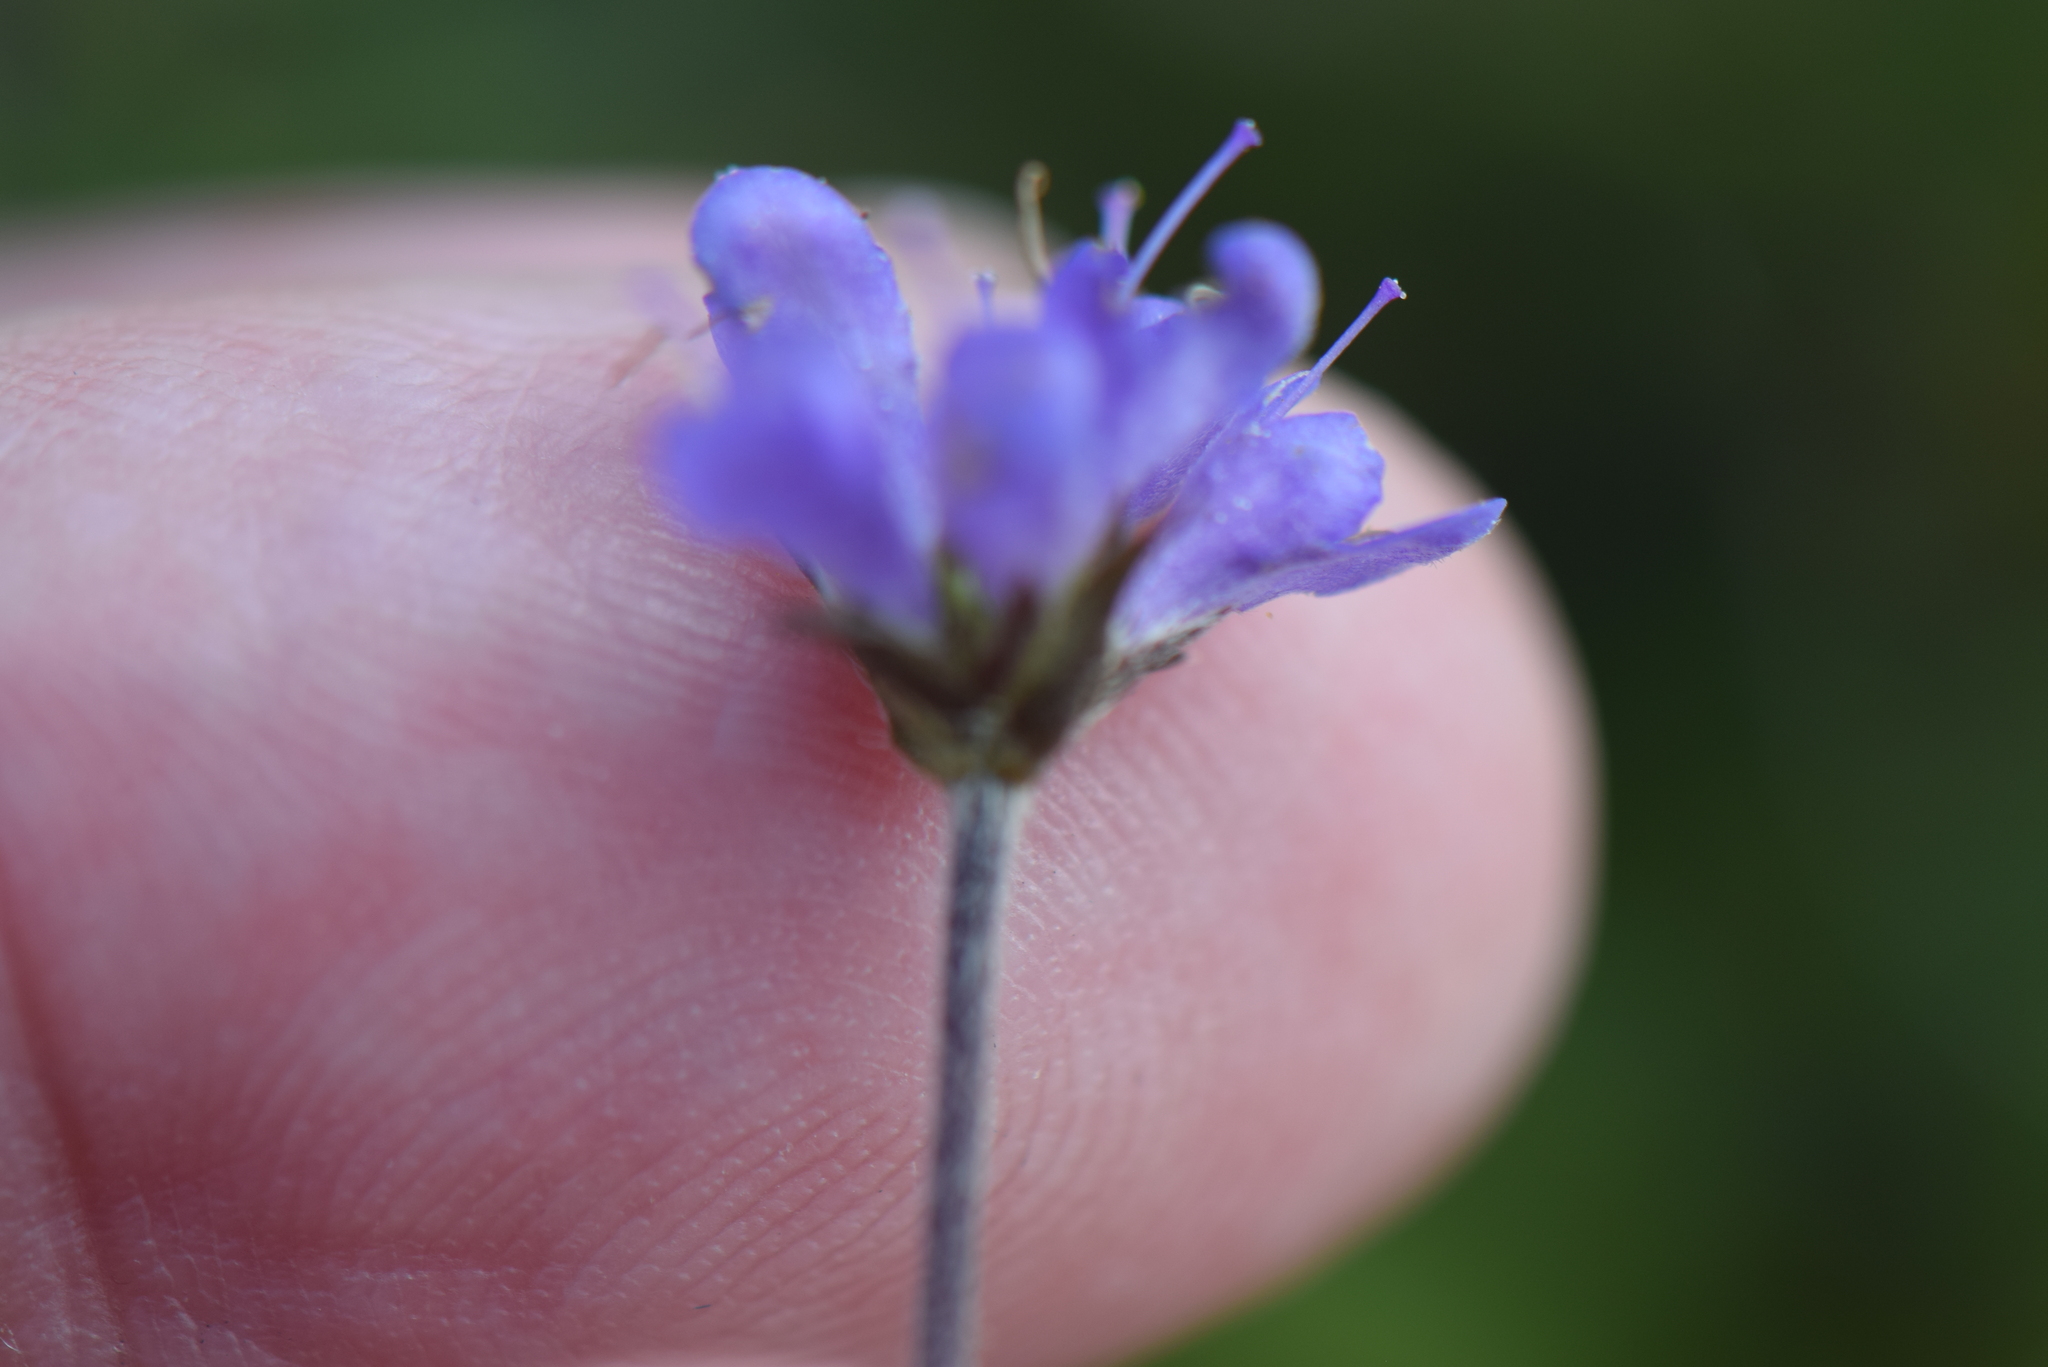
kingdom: Plantae
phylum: Tracheophyta
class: Magnoliopsida
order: Dipsacales
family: Caprifoliaceae
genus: Succisa
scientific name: Succisa pratensis
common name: Devil's-bit
